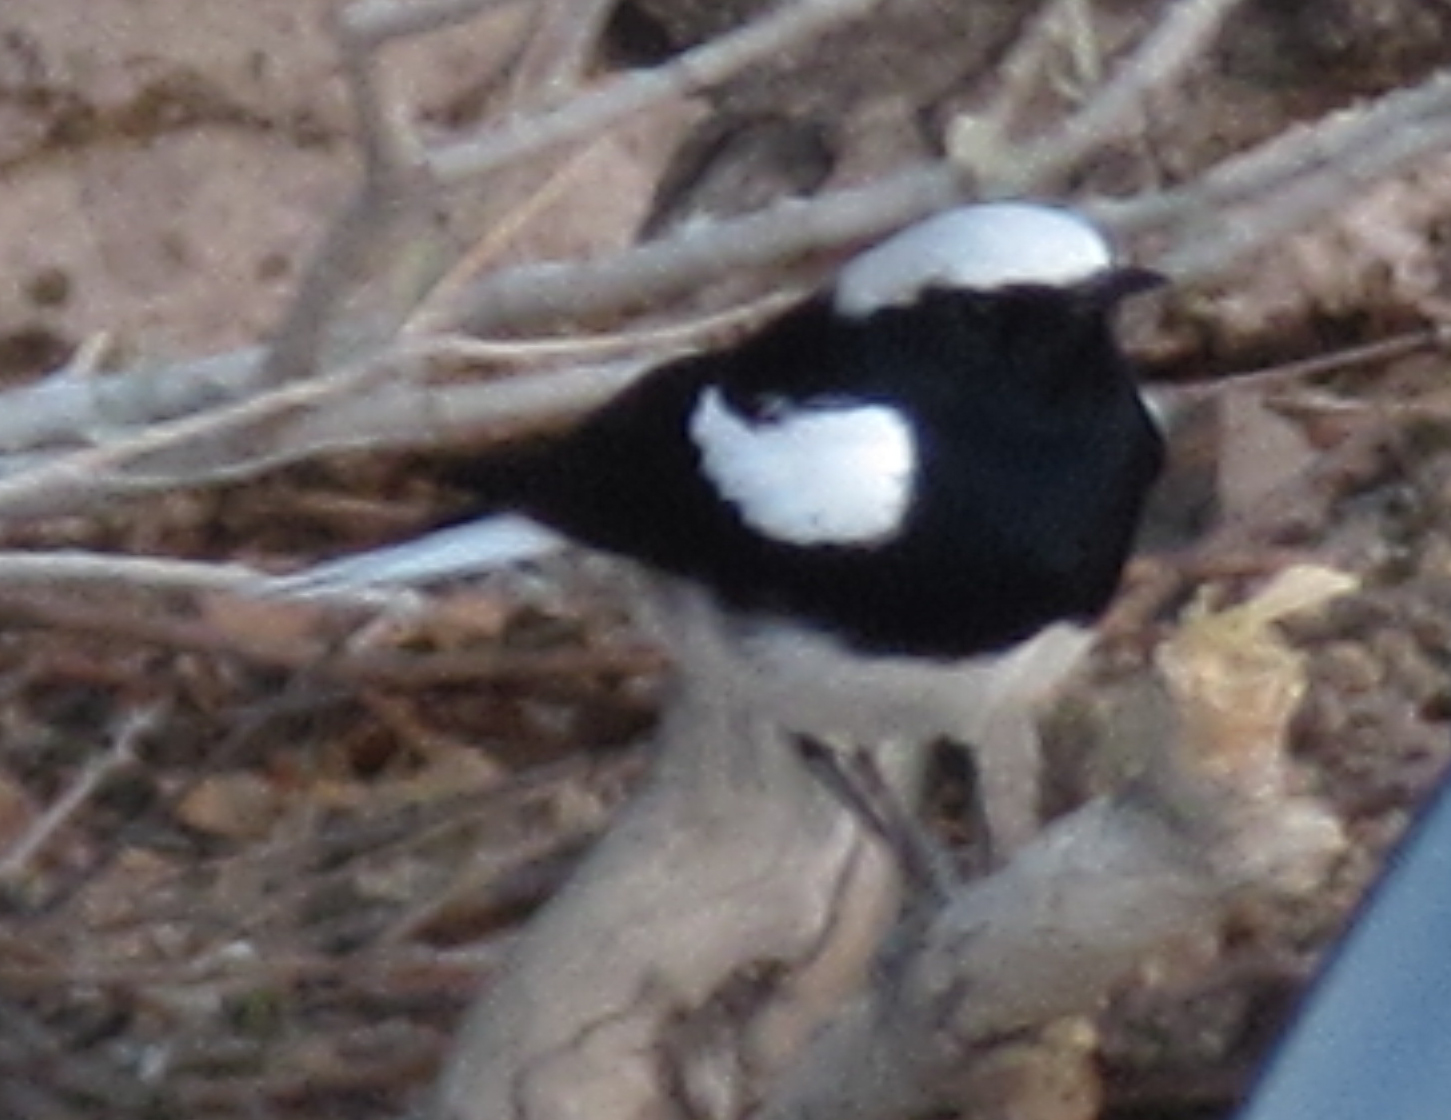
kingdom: Animalia
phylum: Chordata
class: Aves
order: Passeriformes
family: Muscicapidae
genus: Oenanthe
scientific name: Oenanthe monticola
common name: Mountain wheatear
